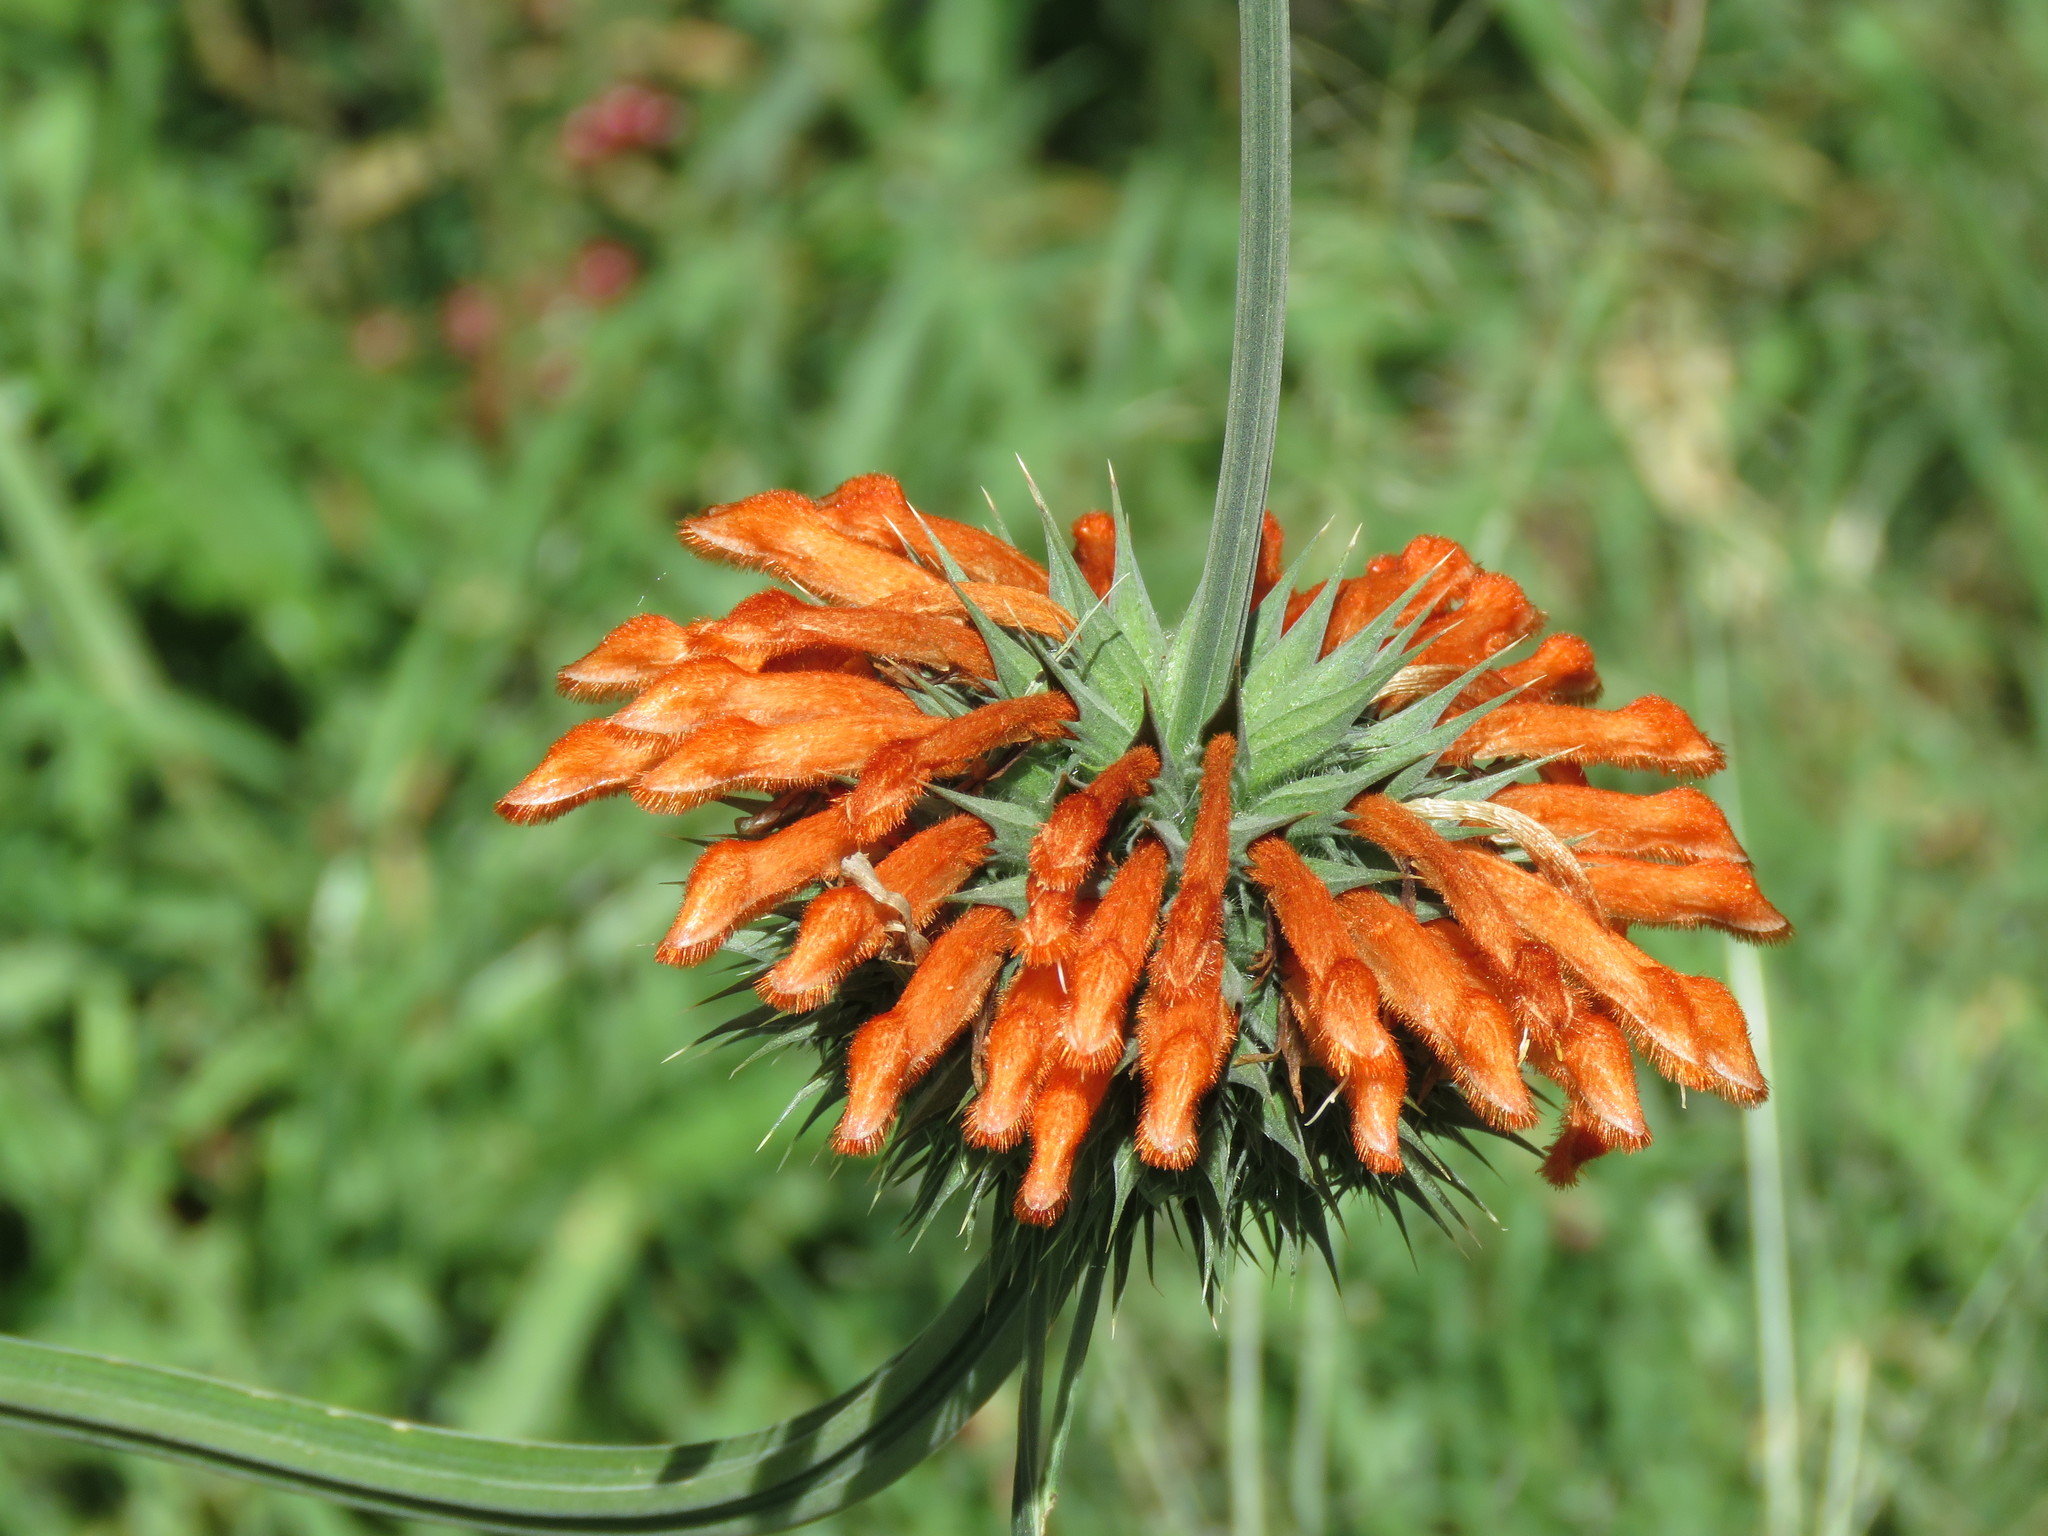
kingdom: Plantae
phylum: Tracheophyta
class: Magnoliopsida
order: Lamiales
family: Lamiaceae
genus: Leonotis
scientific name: Leonotis nepetifolia
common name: Christmas candlestick
